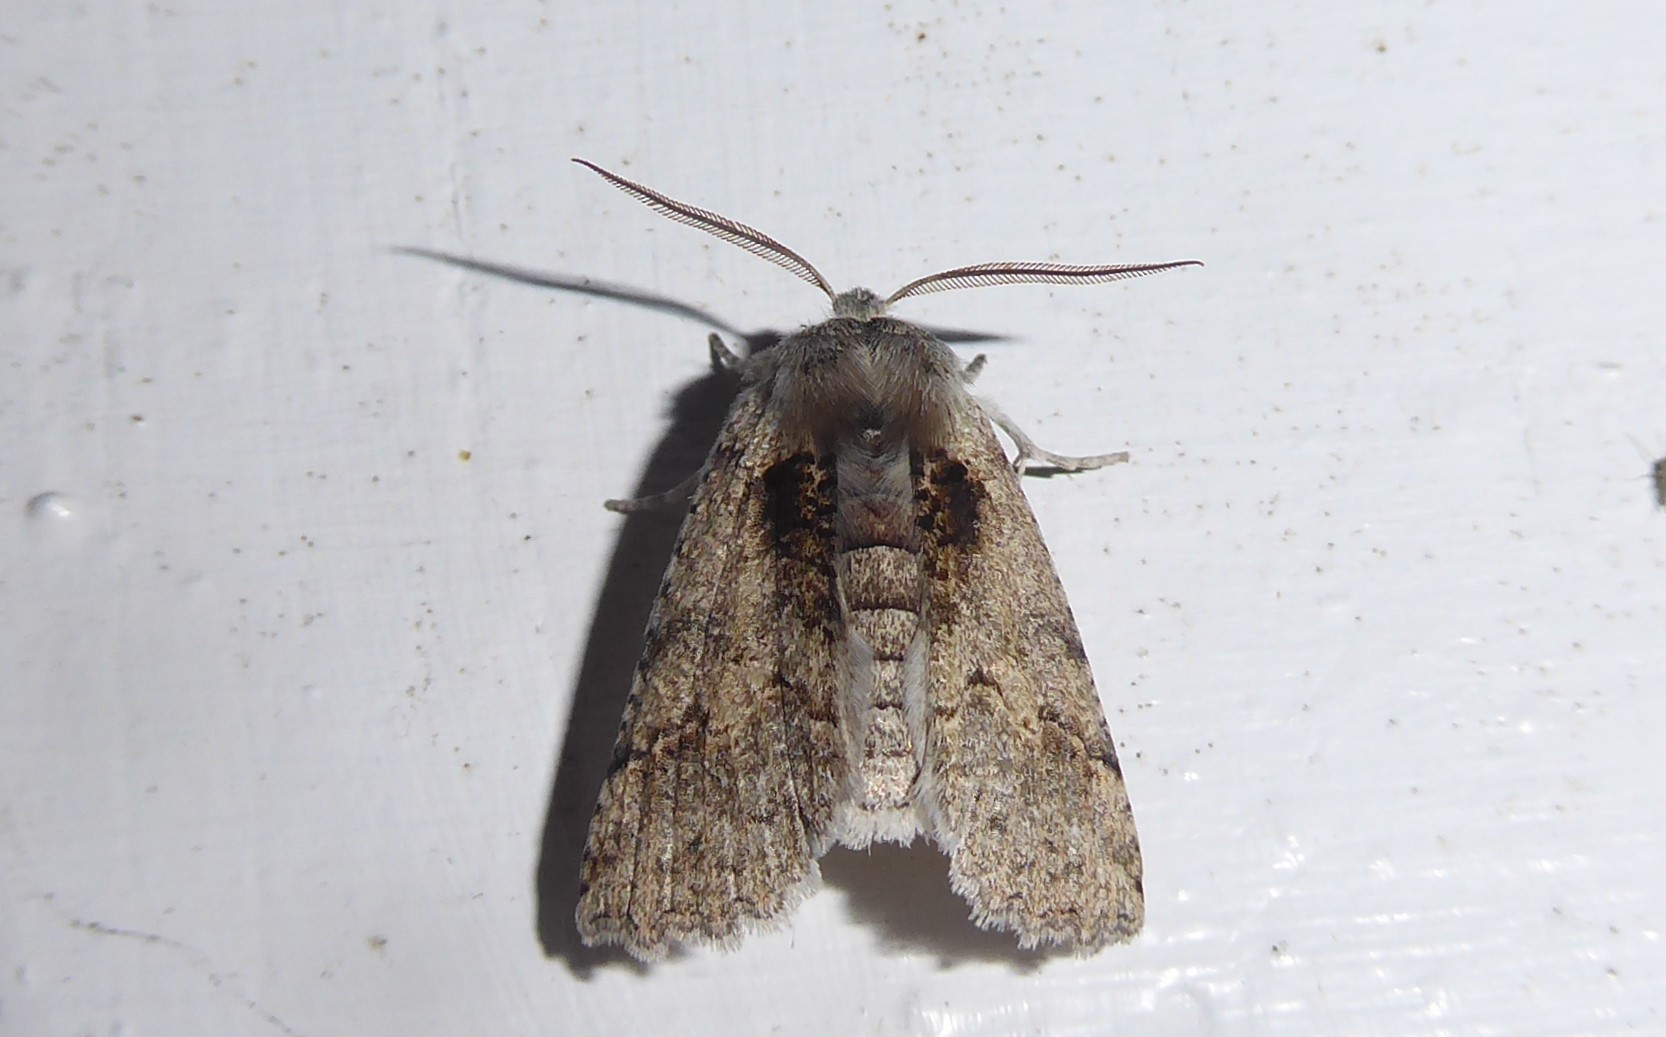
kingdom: Animalia
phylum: Arthropoda
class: Insecta
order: Lepidoptera
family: Geometridae
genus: Declana
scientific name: Declana floccosa
